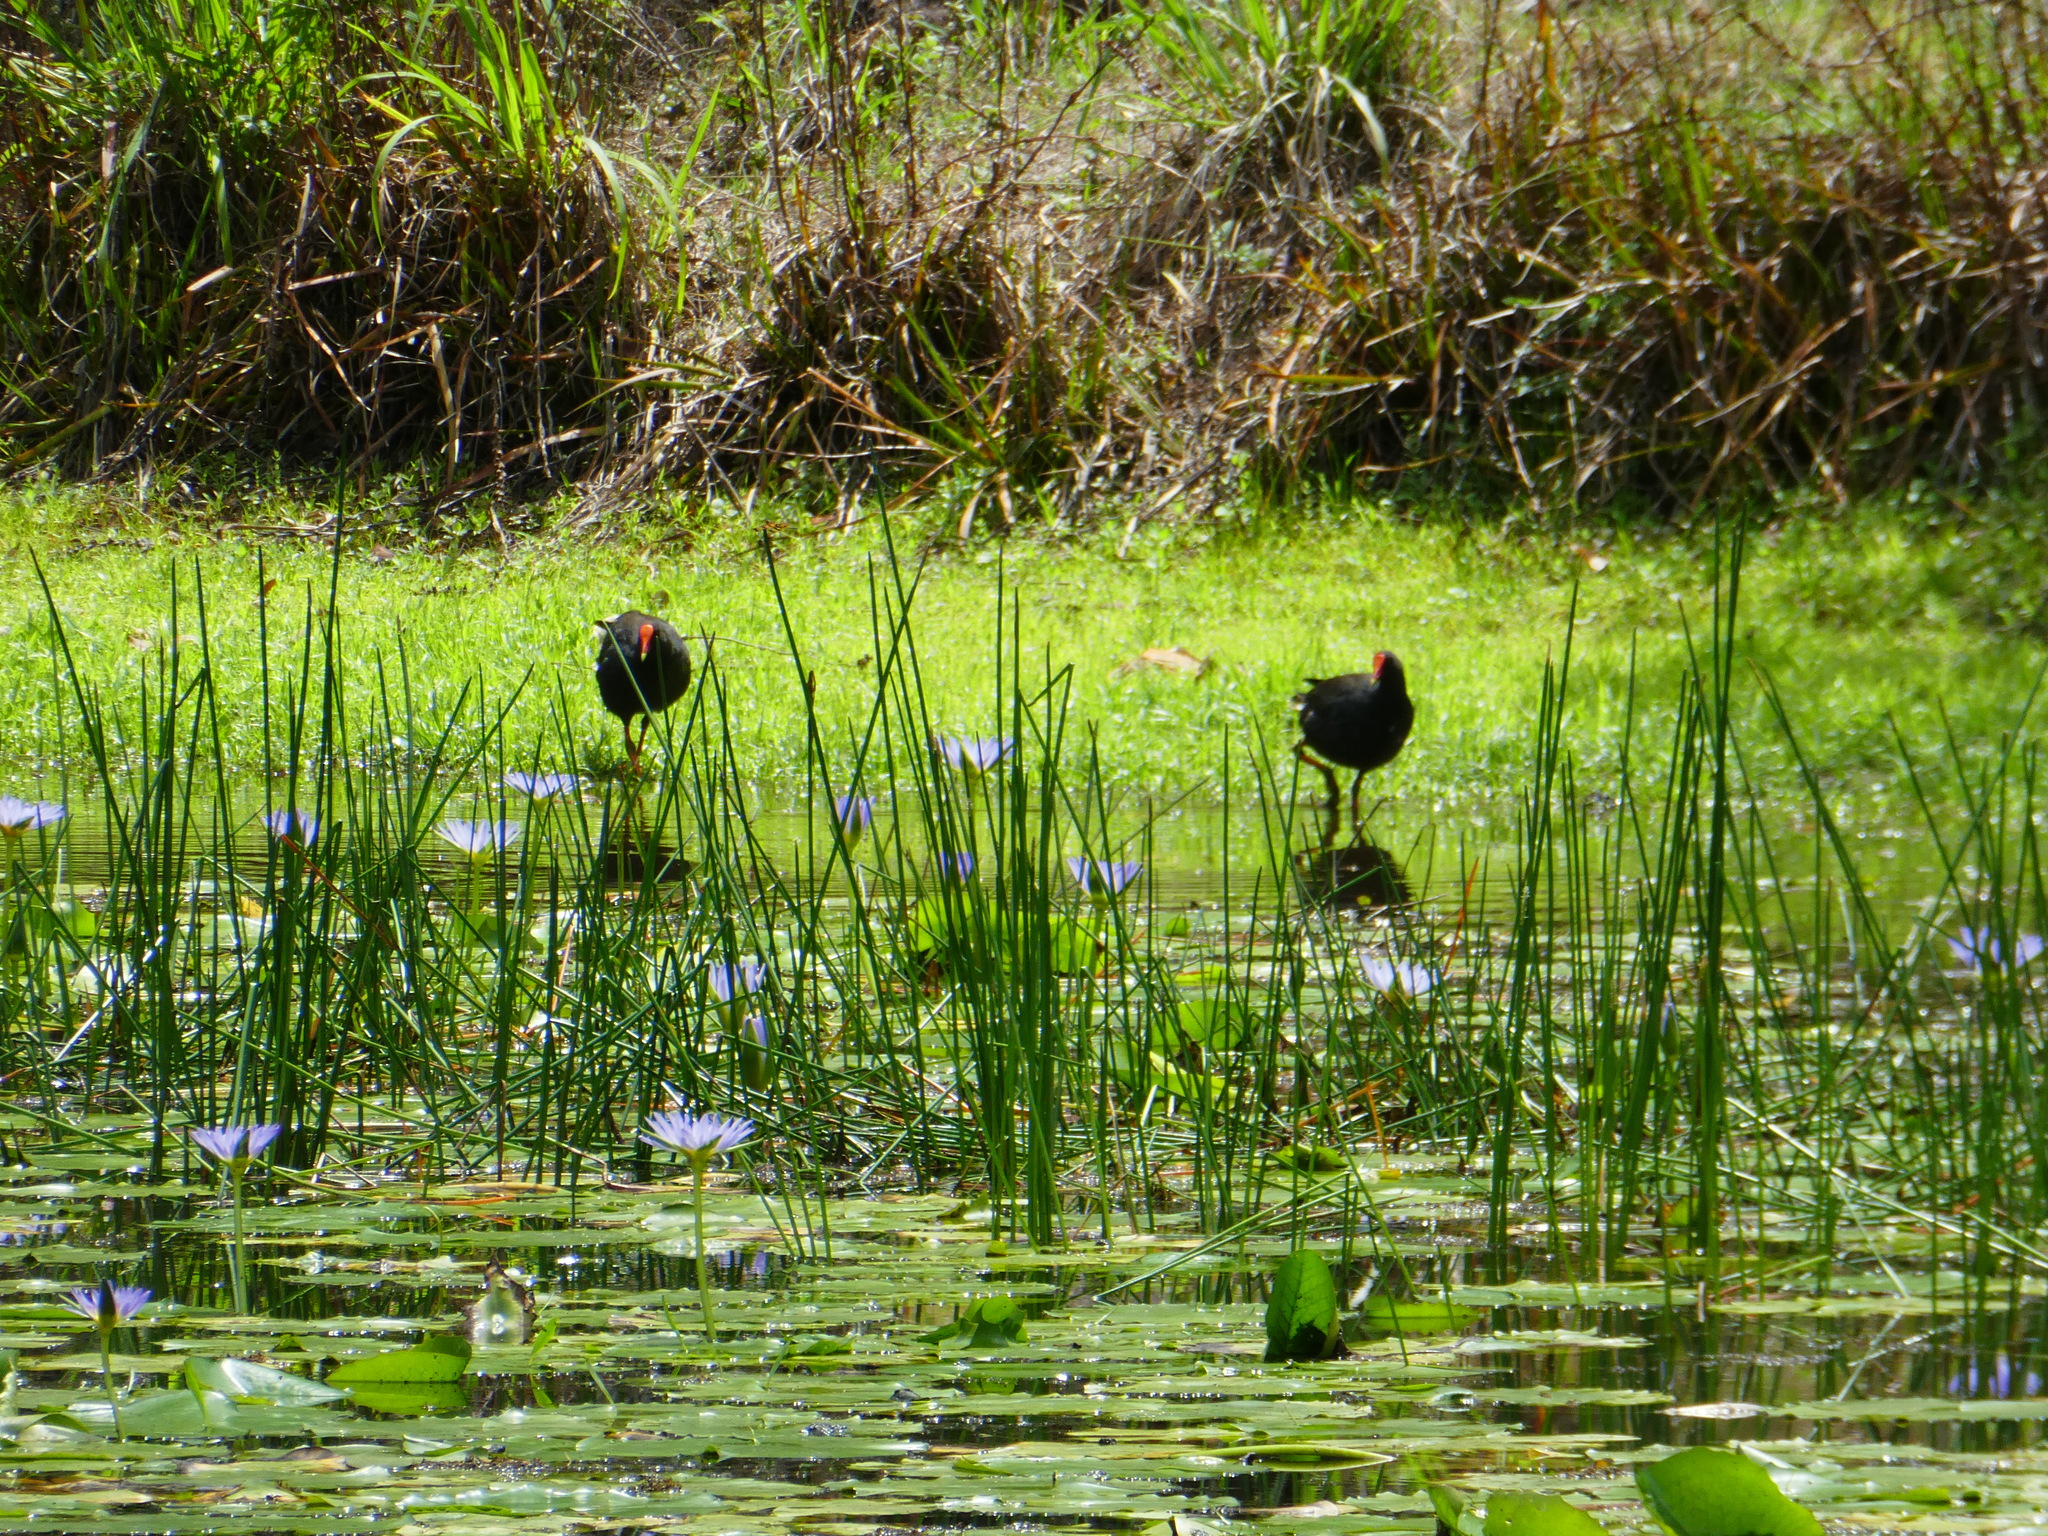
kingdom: Animalia
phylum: Chordata
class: Aves
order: Gruiformes
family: Rallidae
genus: Gallinula
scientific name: Gallinula tenebrosa
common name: Dusky moorhen
